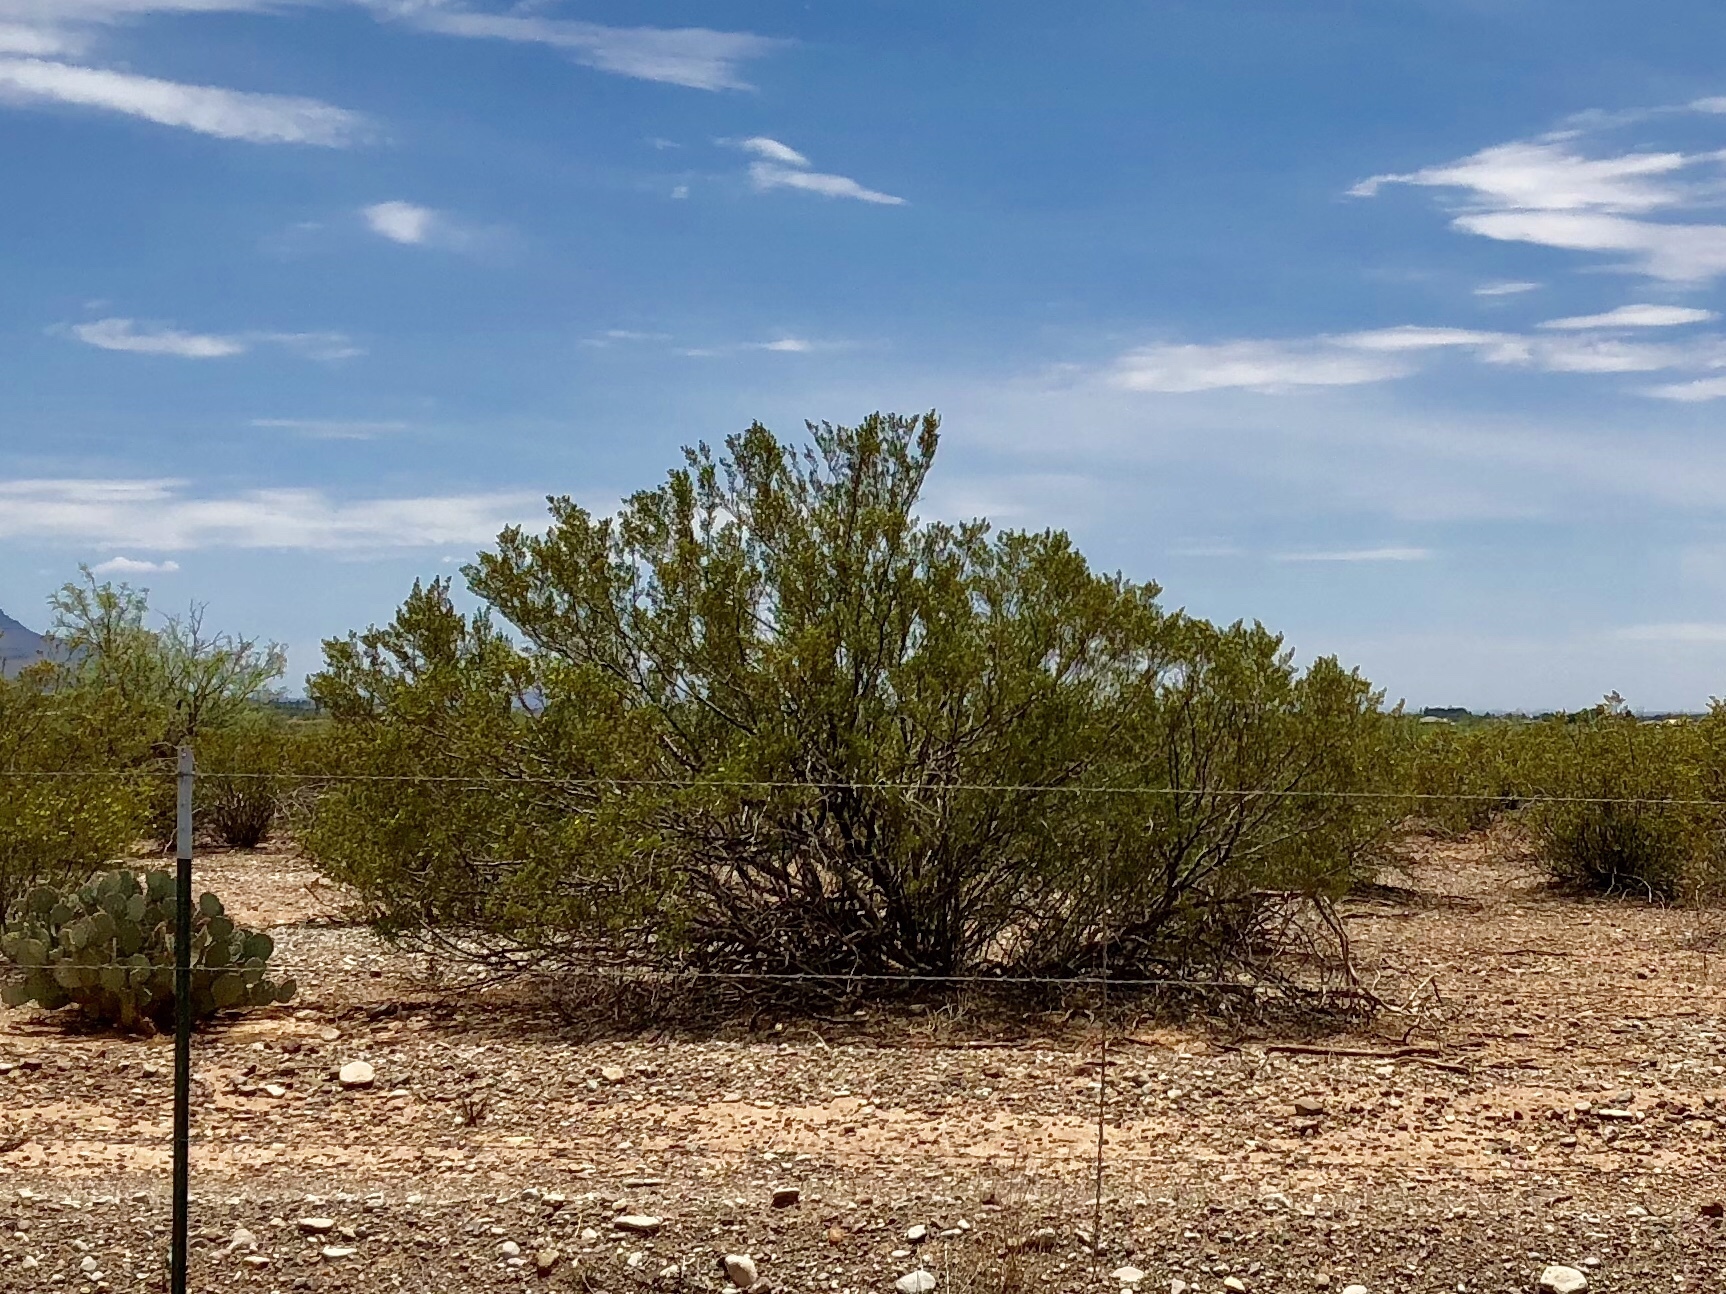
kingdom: Plantae
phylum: Tracheophyta
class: Magnoliopsida
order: Zygophyllales
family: Zygophyllaceae
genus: Larrea
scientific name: Larrea tridentata
